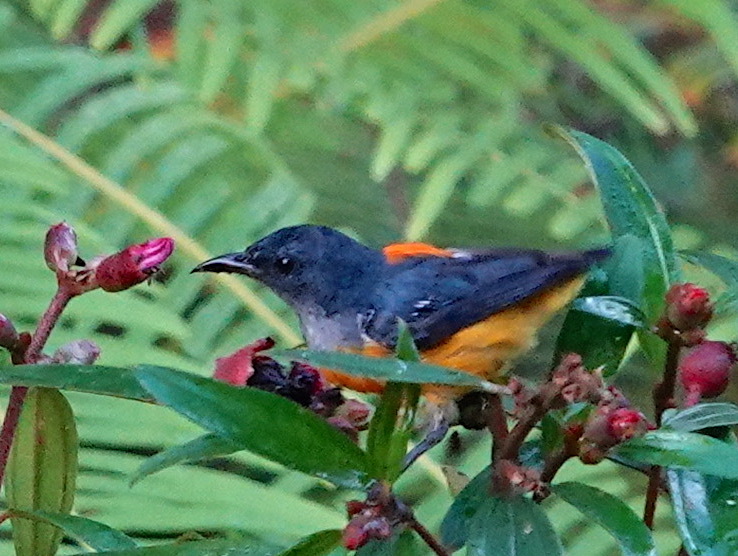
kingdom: Animalia
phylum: Chordata
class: Aves
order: Passeriformes
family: Dicaeidae
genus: Dicaeum
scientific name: Dicaeum trigonostigma
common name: Orange-bellied flowerpecker
